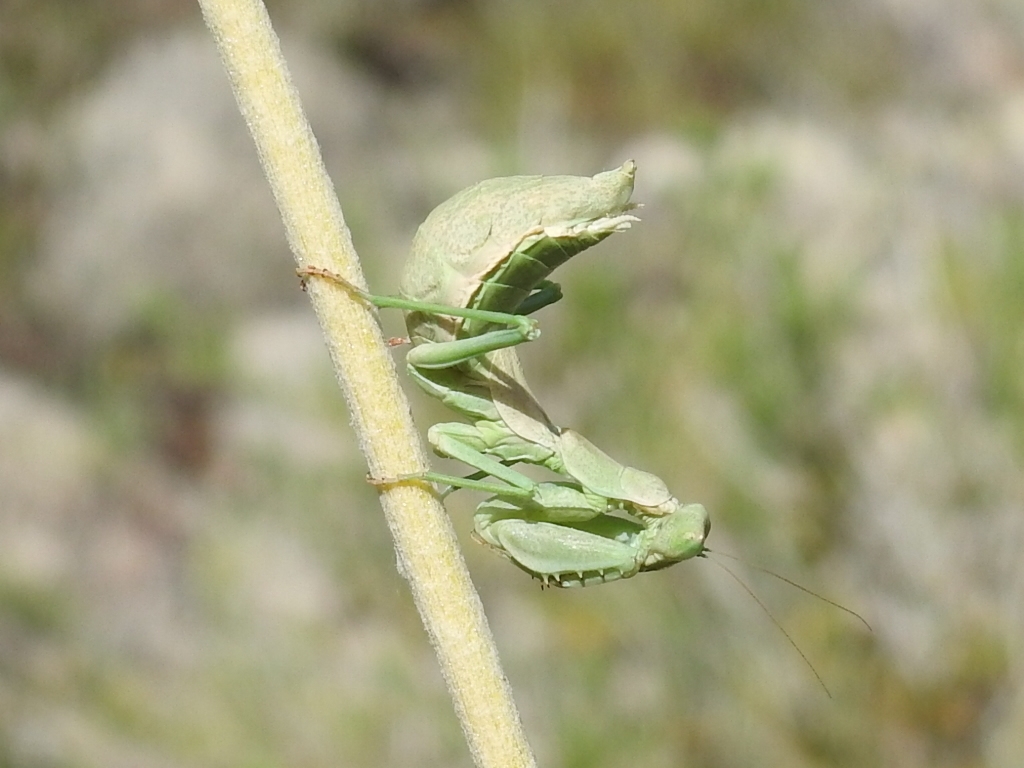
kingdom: Animalia
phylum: Arthropoda
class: Insecta
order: Mantodea
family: Amelidae
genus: Ameles
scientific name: Ameles spallanzania
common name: European dwarf mantis
